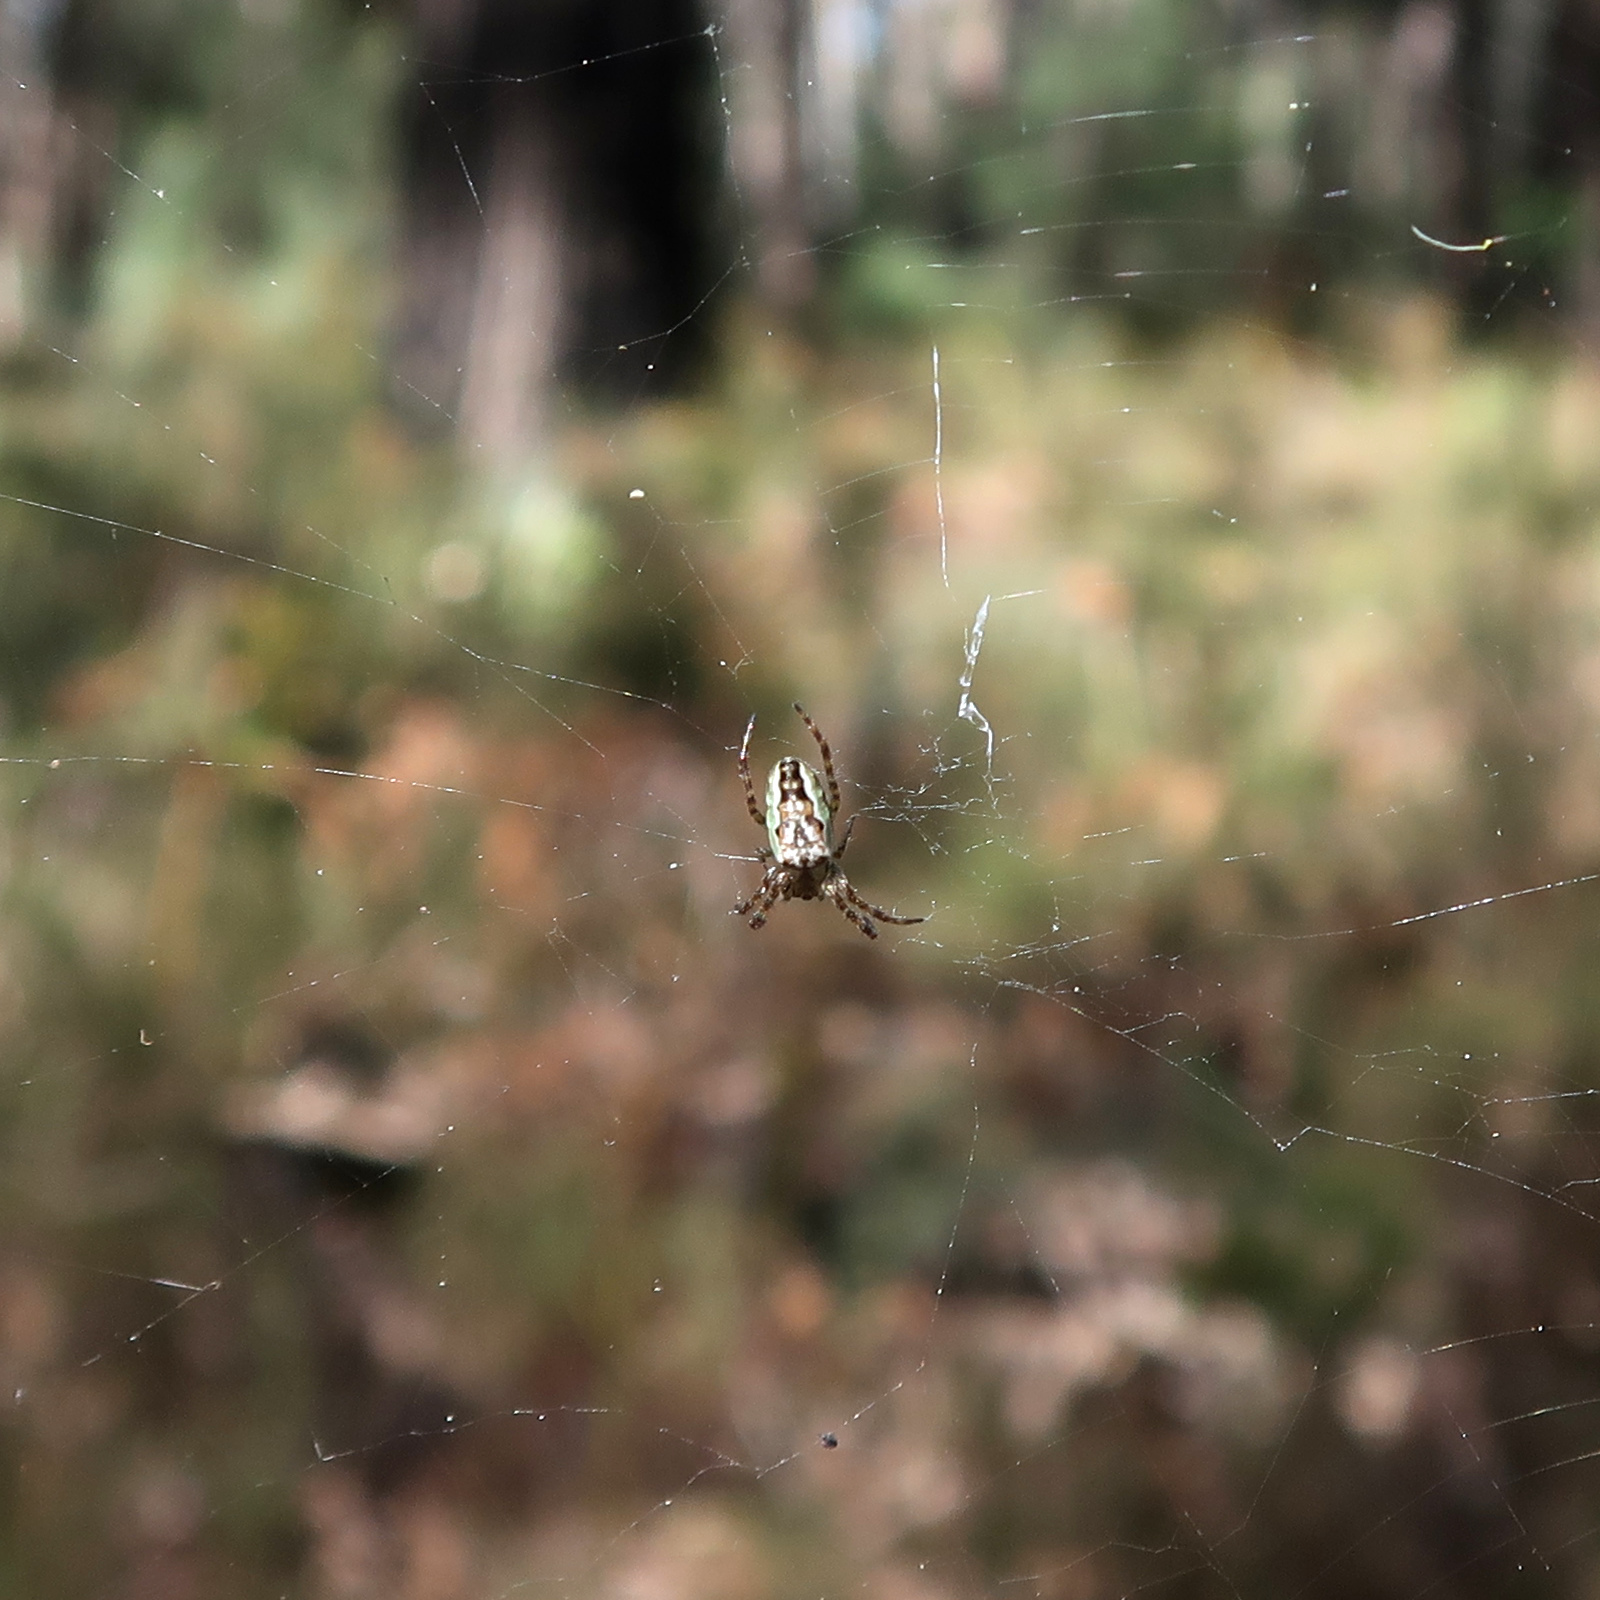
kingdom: Animalia
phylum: Arthropoda
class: Arachnida
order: Araneae
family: Araneidae
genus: Plebs
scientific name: Plebs bradleyi
